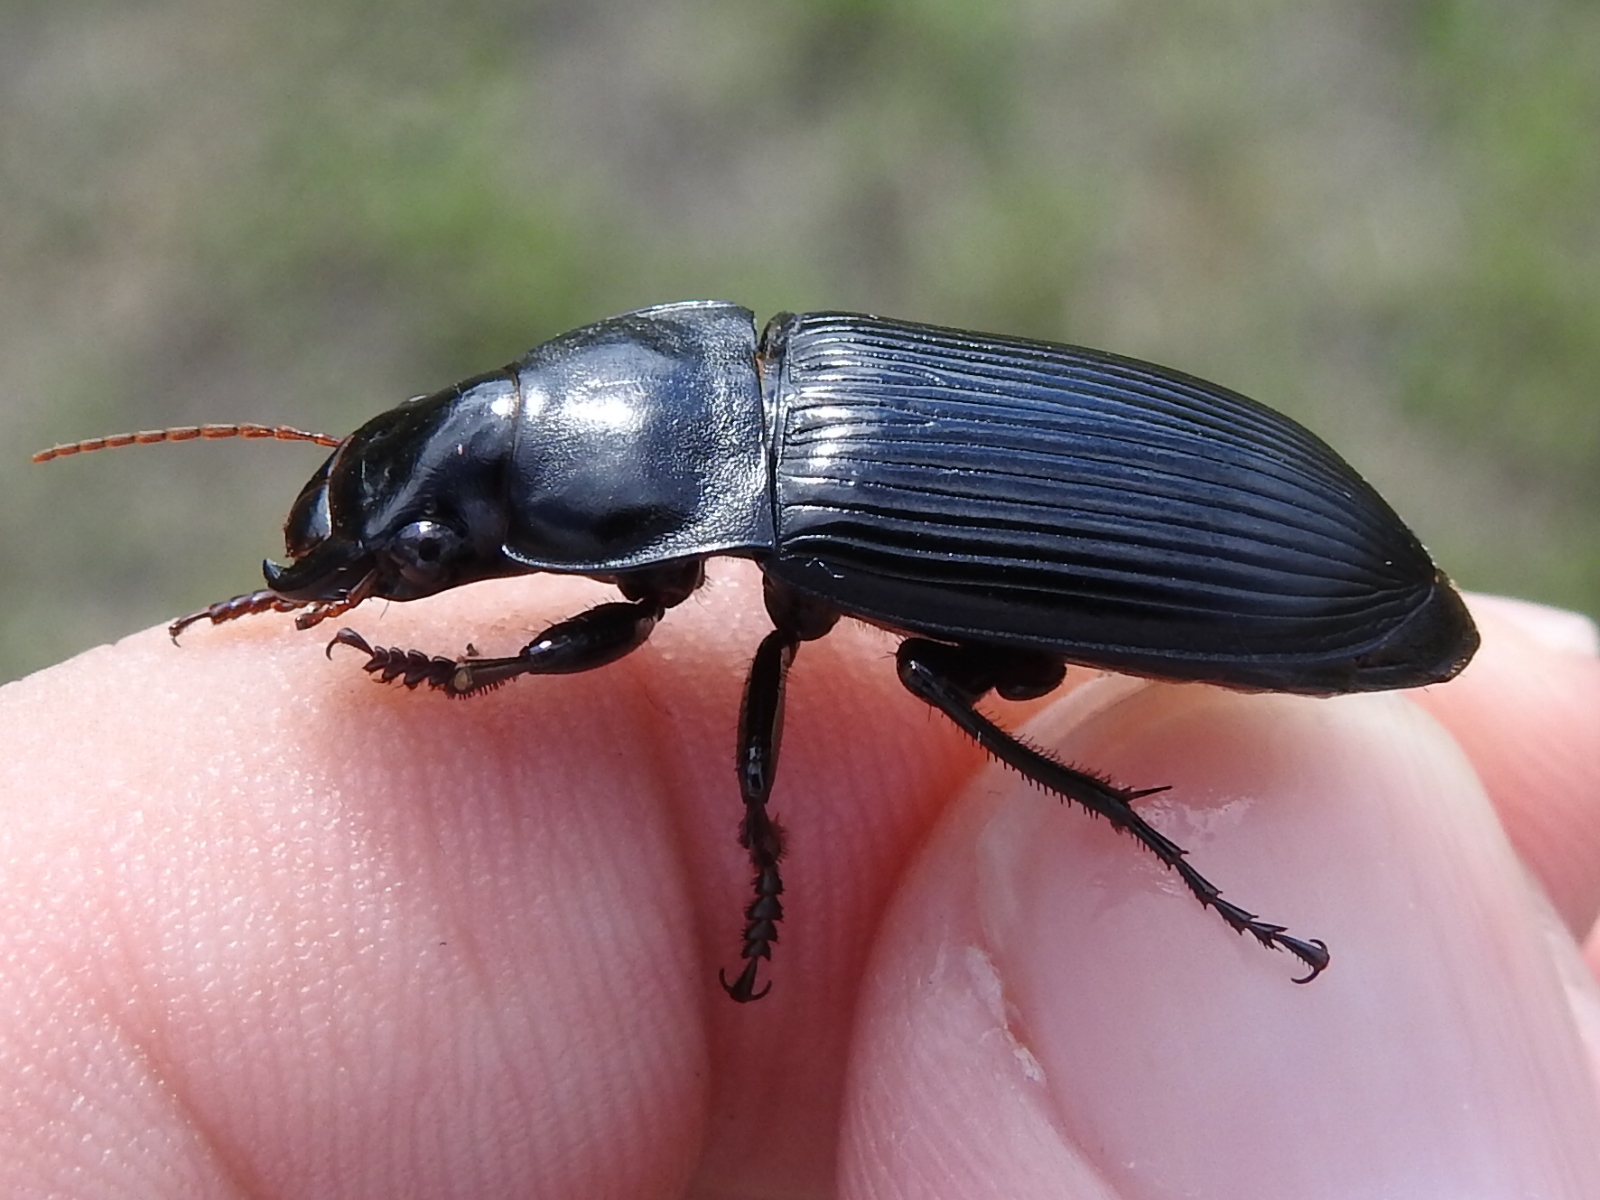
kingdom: Animalia
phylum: Arthropoda
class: Insecta
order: Coleoptera
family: Carabidae
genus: Harpalus
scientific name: Harpalus caliginosus
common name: Murky ground beetle
